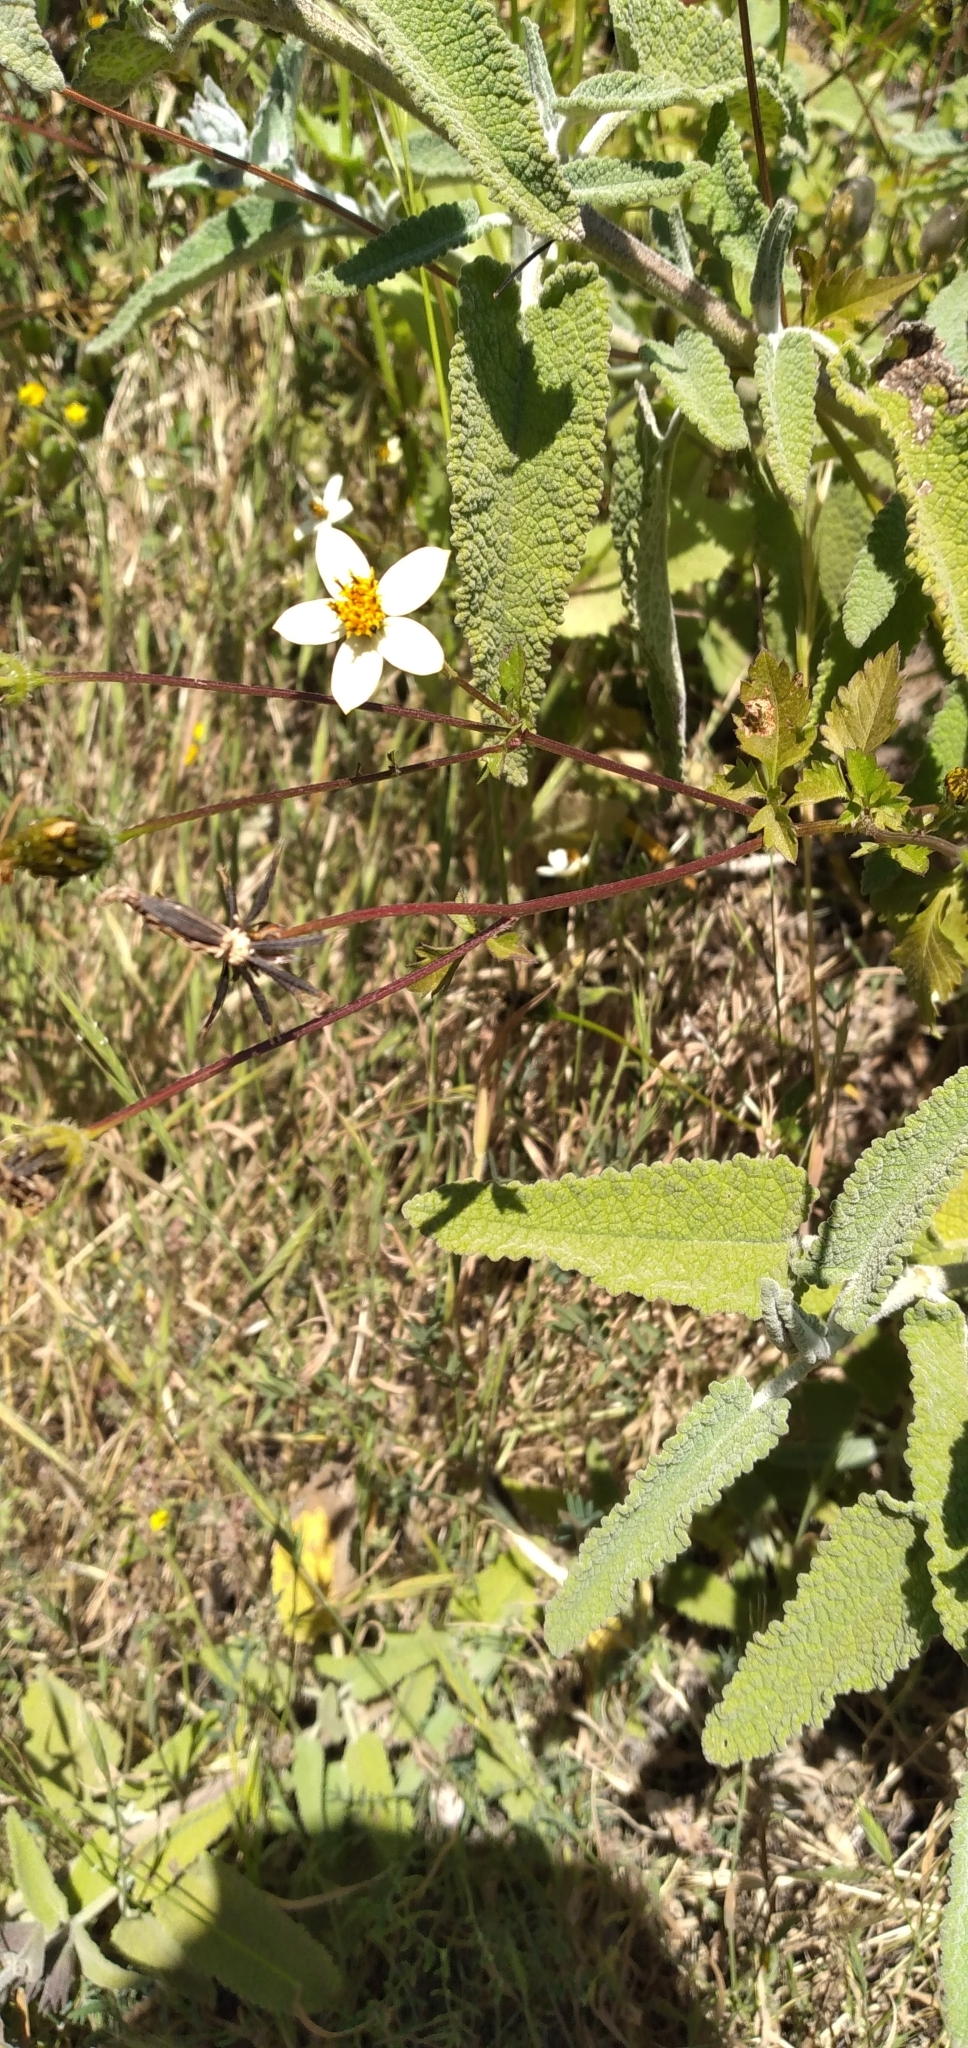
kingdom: Plantae
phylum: Tracheophyta
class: Magnoliopsida
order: Asterales
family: Asteraceae
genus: Bidens
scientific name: Bidens pilosa
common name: Black-jack
